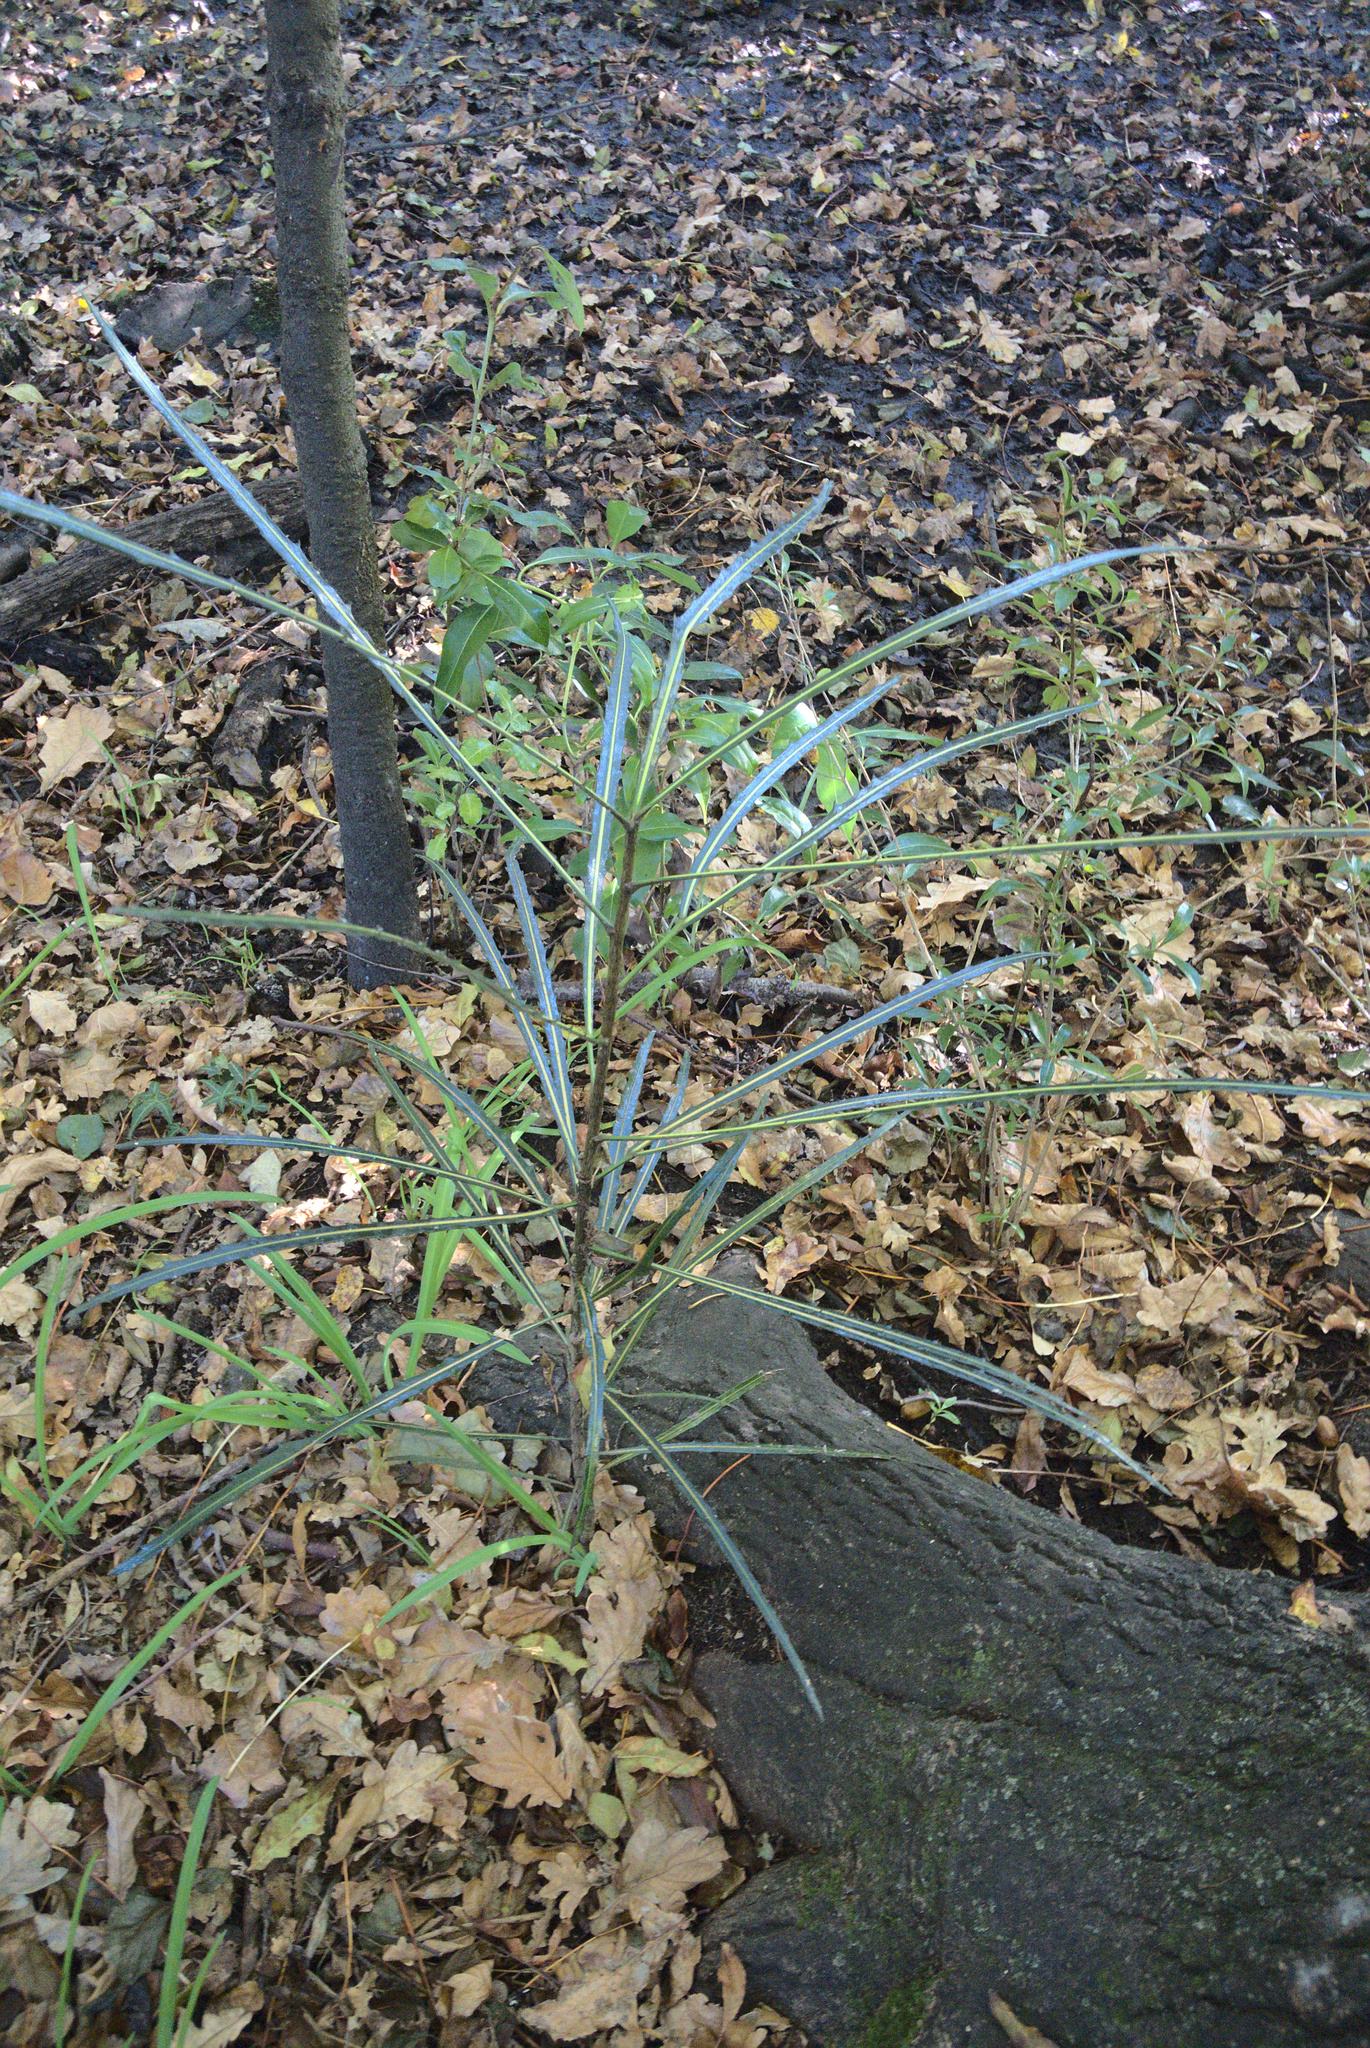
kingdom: Plantae
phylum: Tracheophyta
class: Magnoliopsida
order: Apiales
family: Araliaceae
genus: Pseudopanax
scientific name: Pseudopanax
